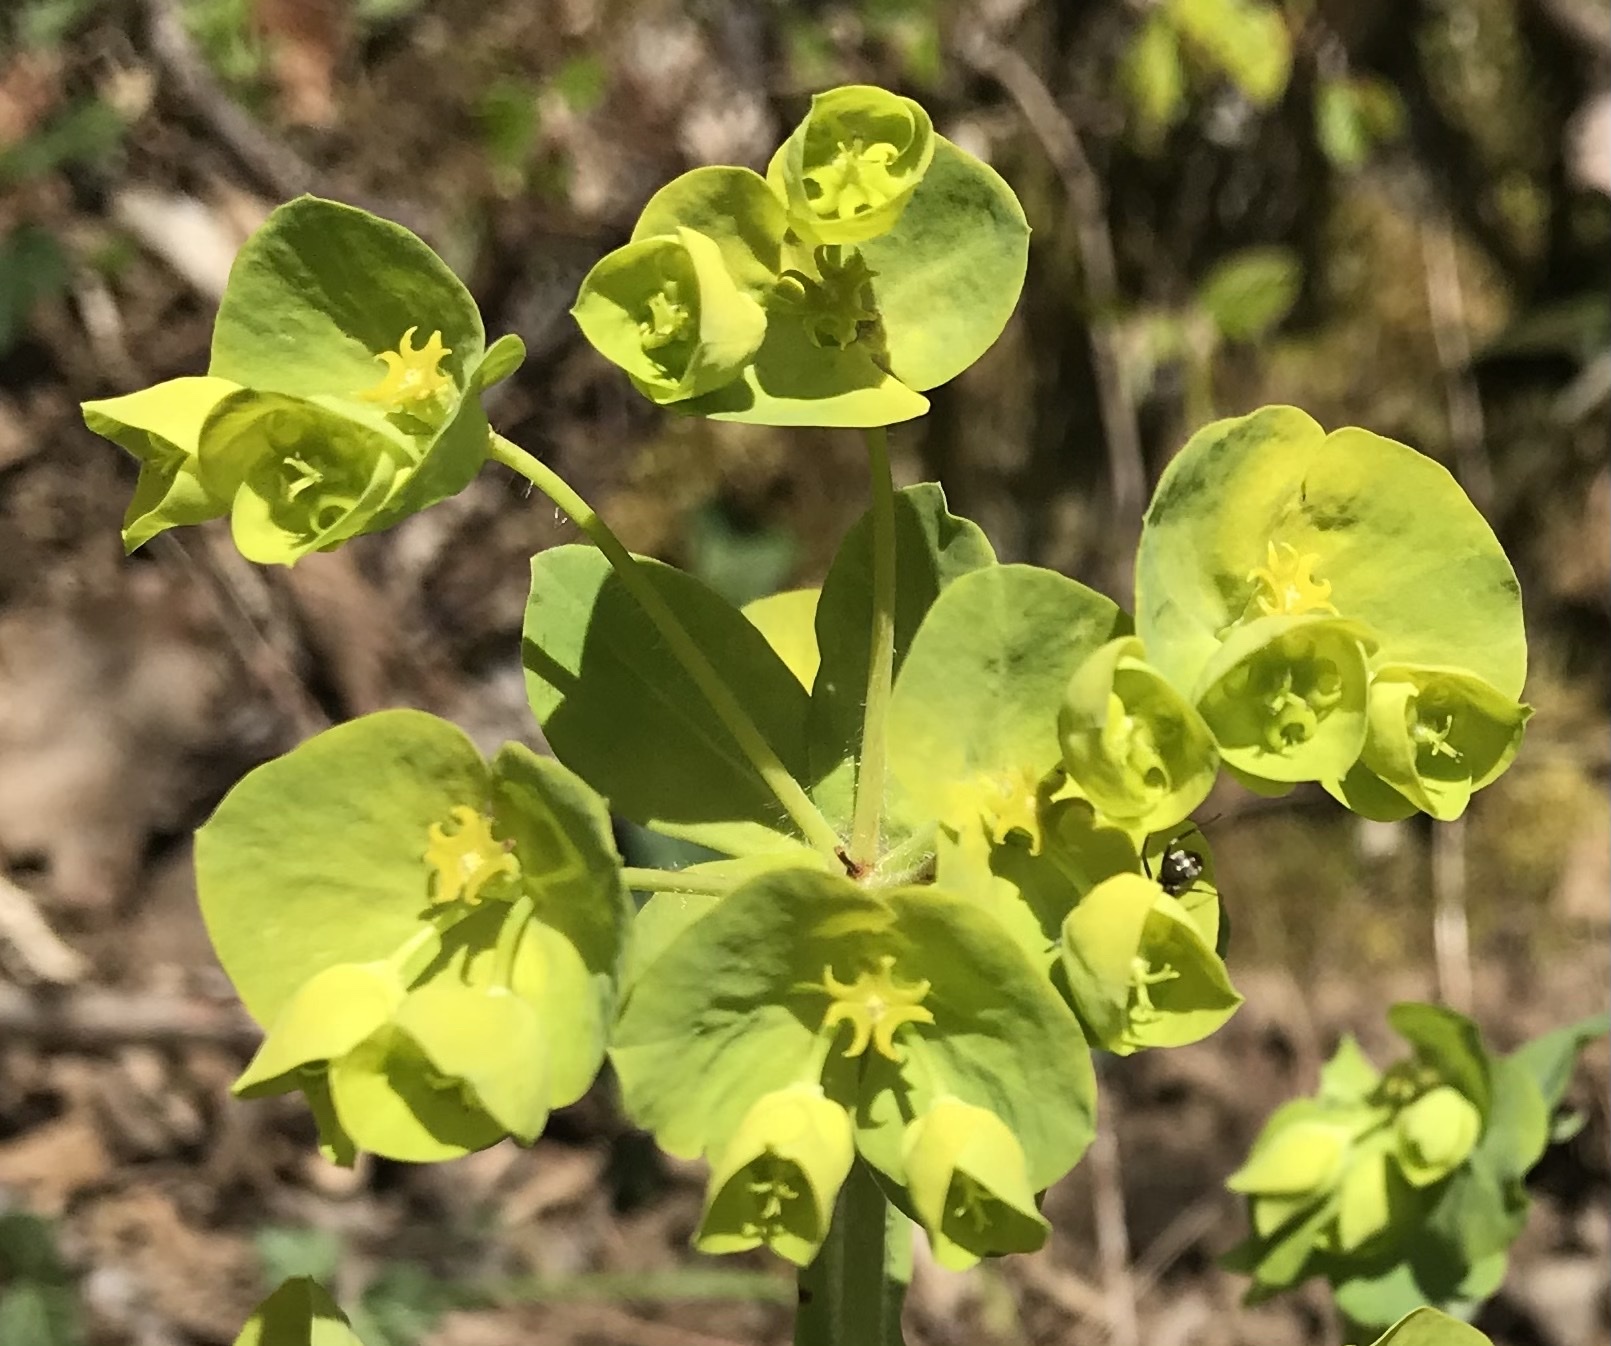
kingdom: Plantae
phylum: Tracheophyta
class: Magnoliopsida
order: Malpighiales
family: Euphorbiaceae
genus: Euphorbia
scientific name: Euphorbia amygdaloides
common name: Wood spurge
